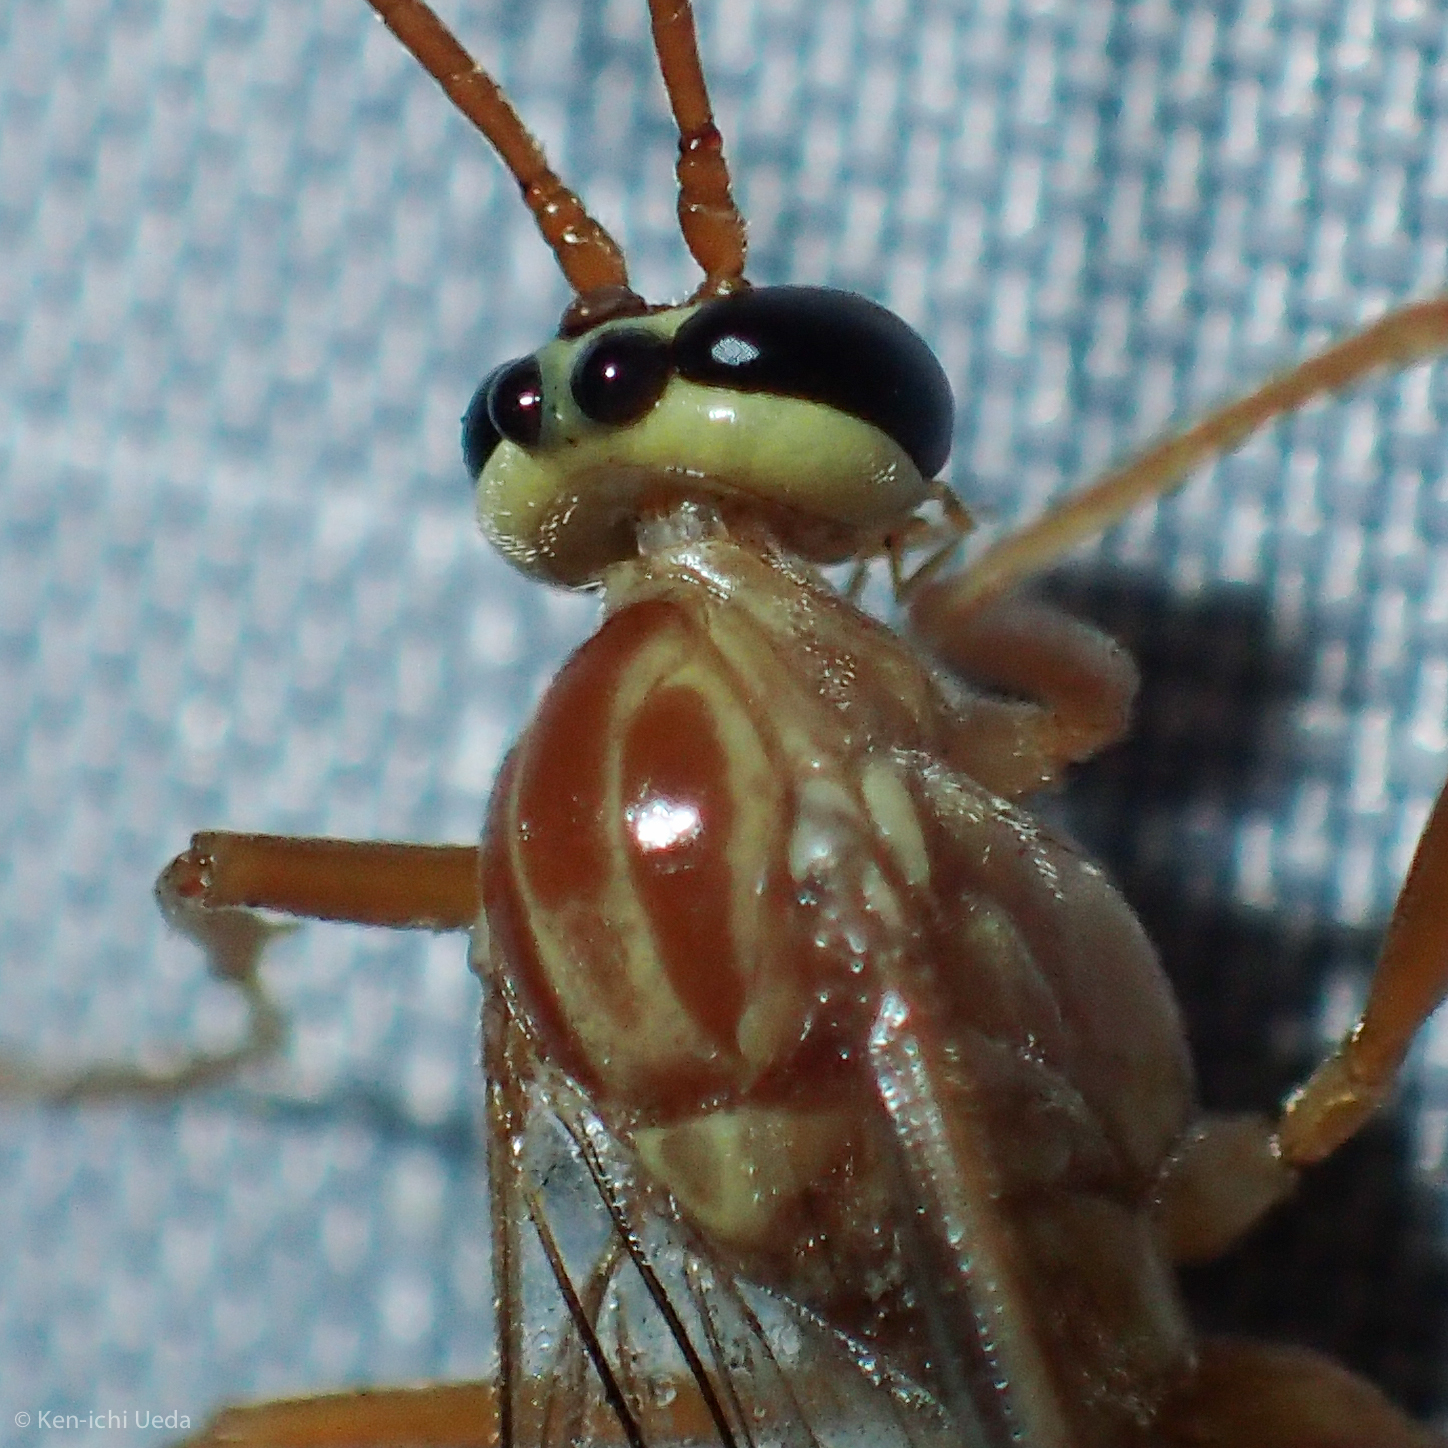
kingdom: Animalia
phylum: Arthropoda
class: Insecta
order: Hymenoptera
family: Ichneumonidae
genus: Ophion
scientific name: Ophion
